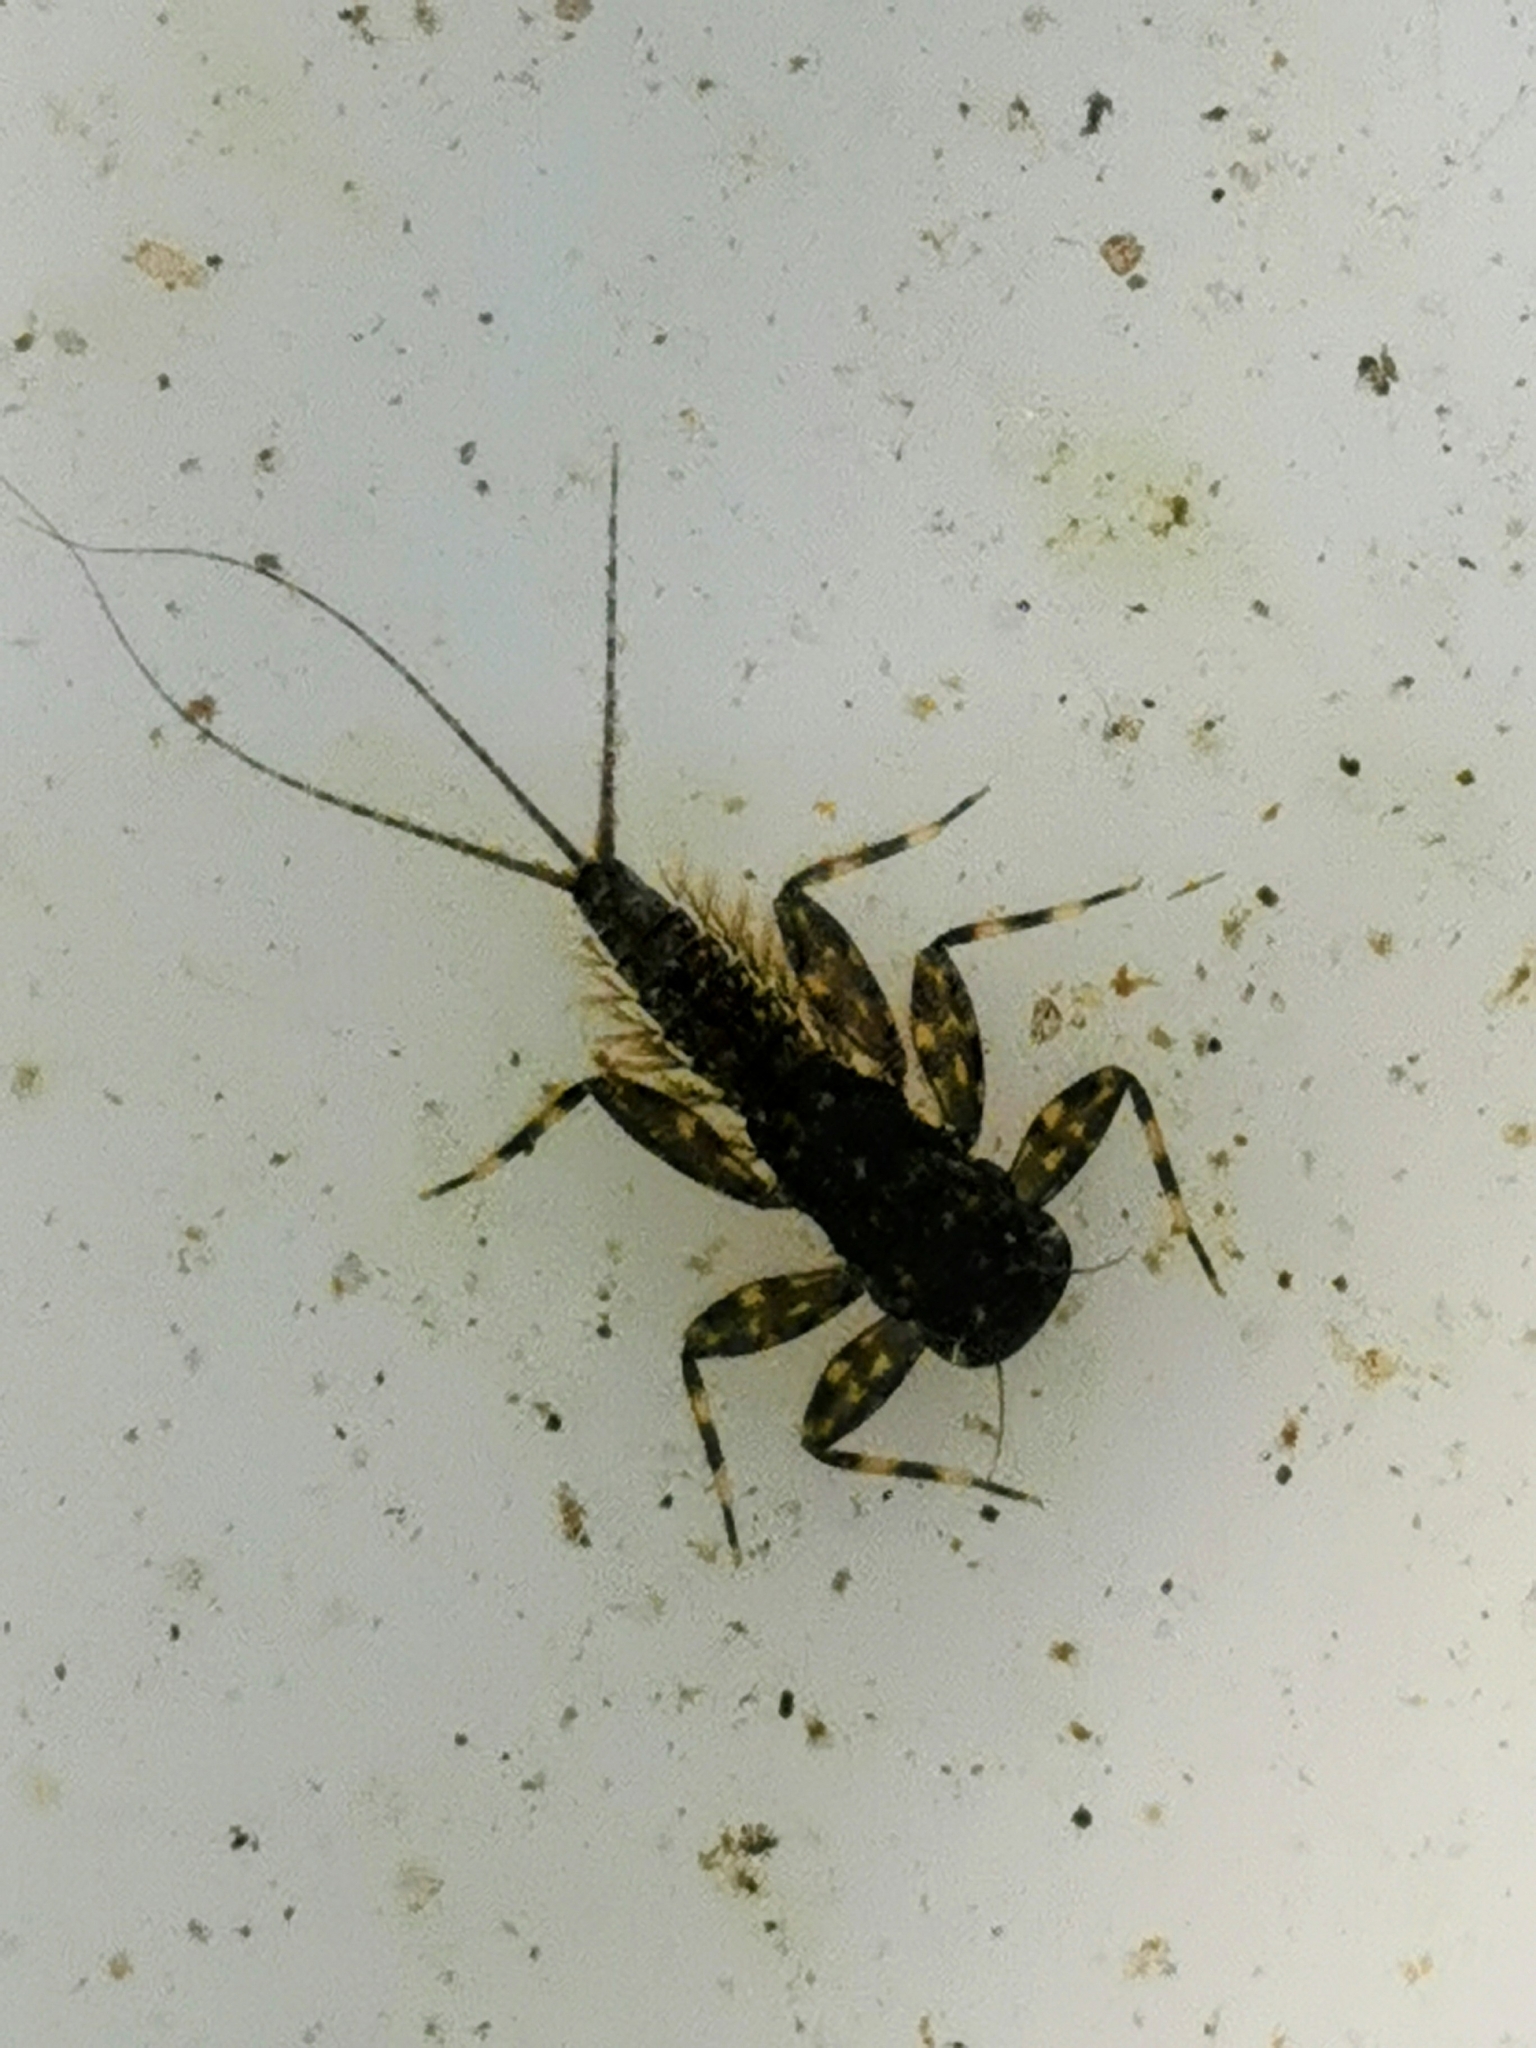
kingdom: Animalia
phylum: Arthropoda
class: Insecta
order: Ephemeroptera
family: Heptageniidae
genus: Heptagenia
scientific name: Heptagenia sulphurea
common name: Yellow may dun
